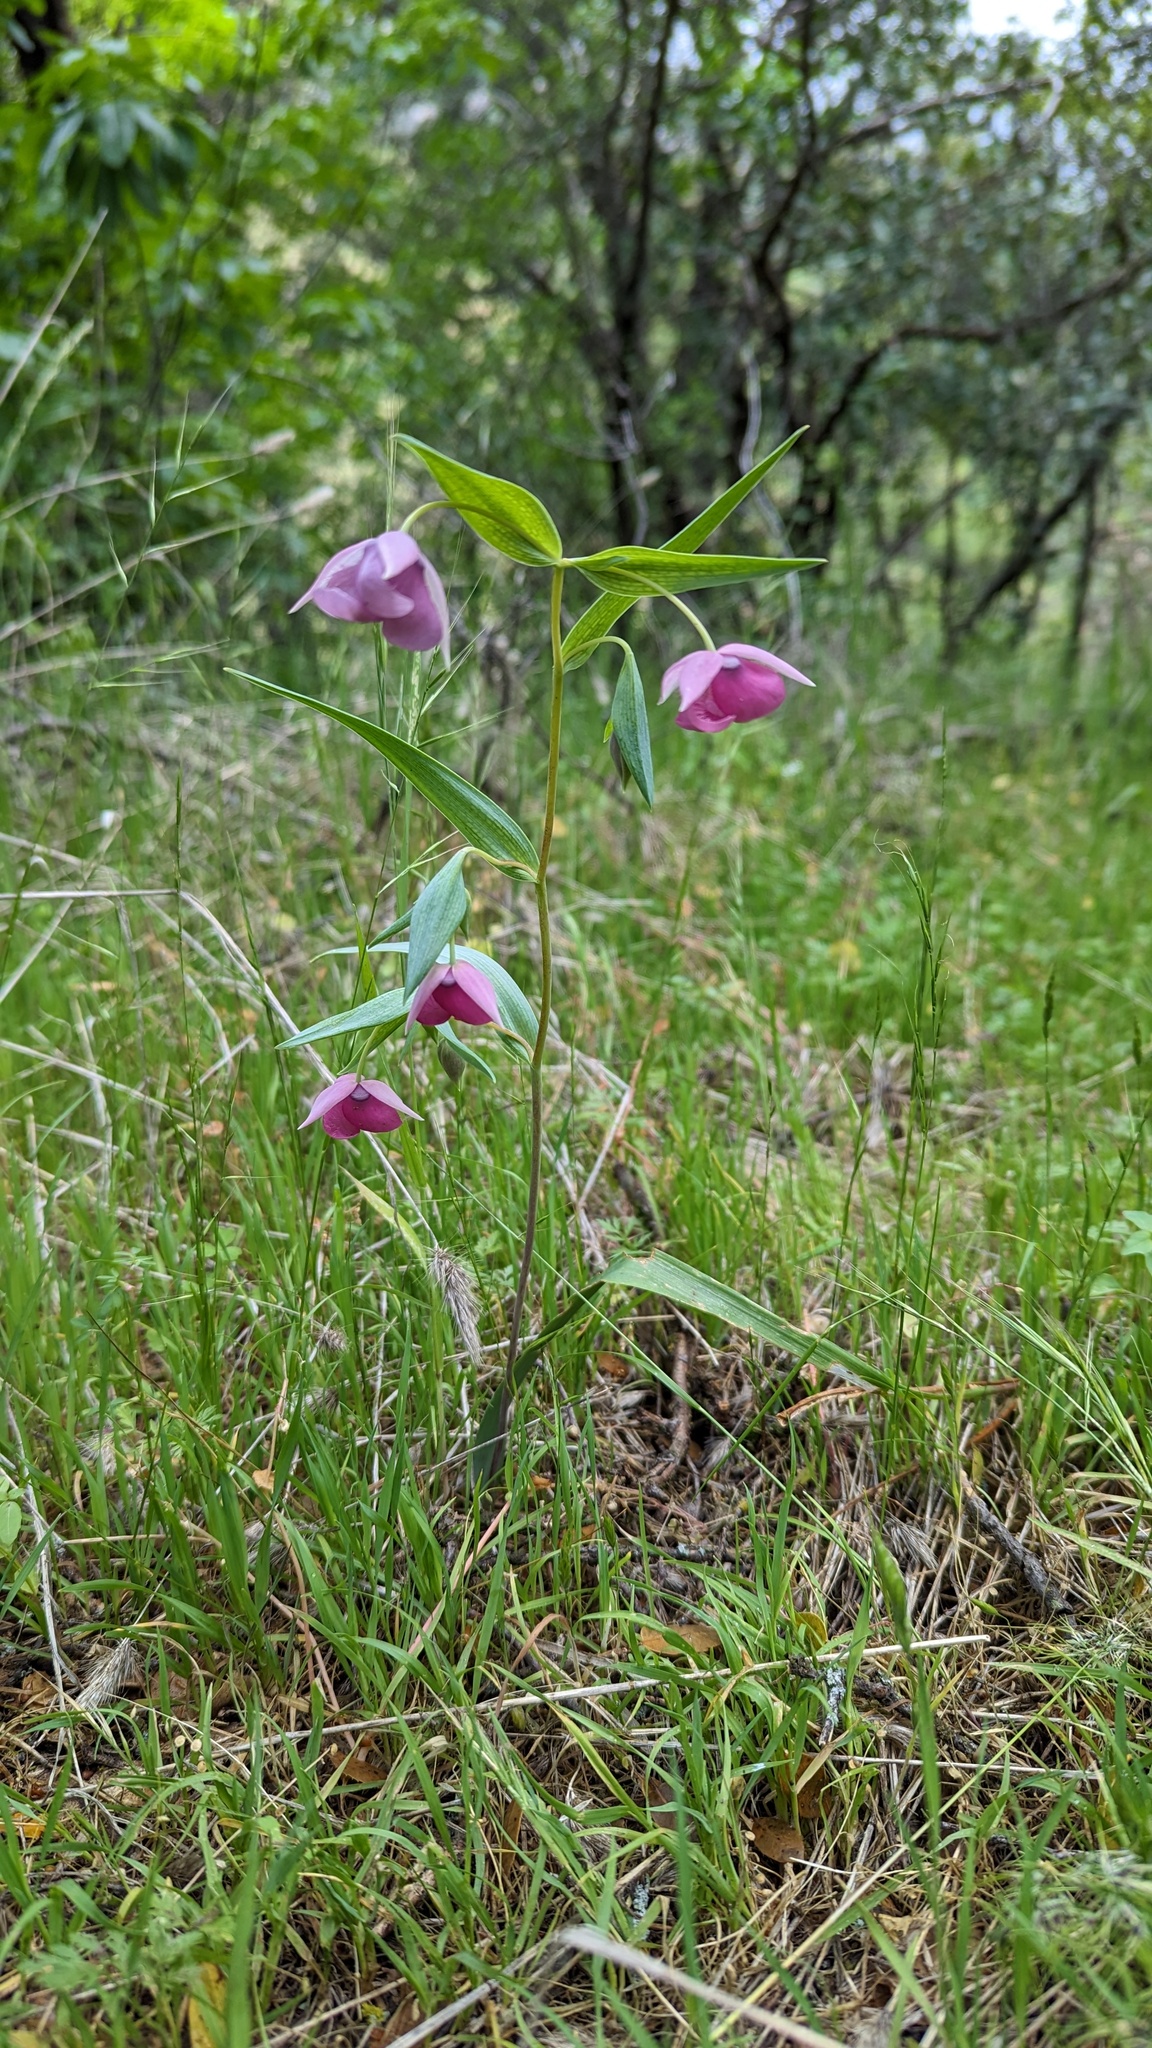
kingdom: Plantae
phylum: Tracheophyta
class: Liliopsida
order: Liliales
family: Liliaceae
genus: Calochortus
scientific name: Calochortus amoenus
